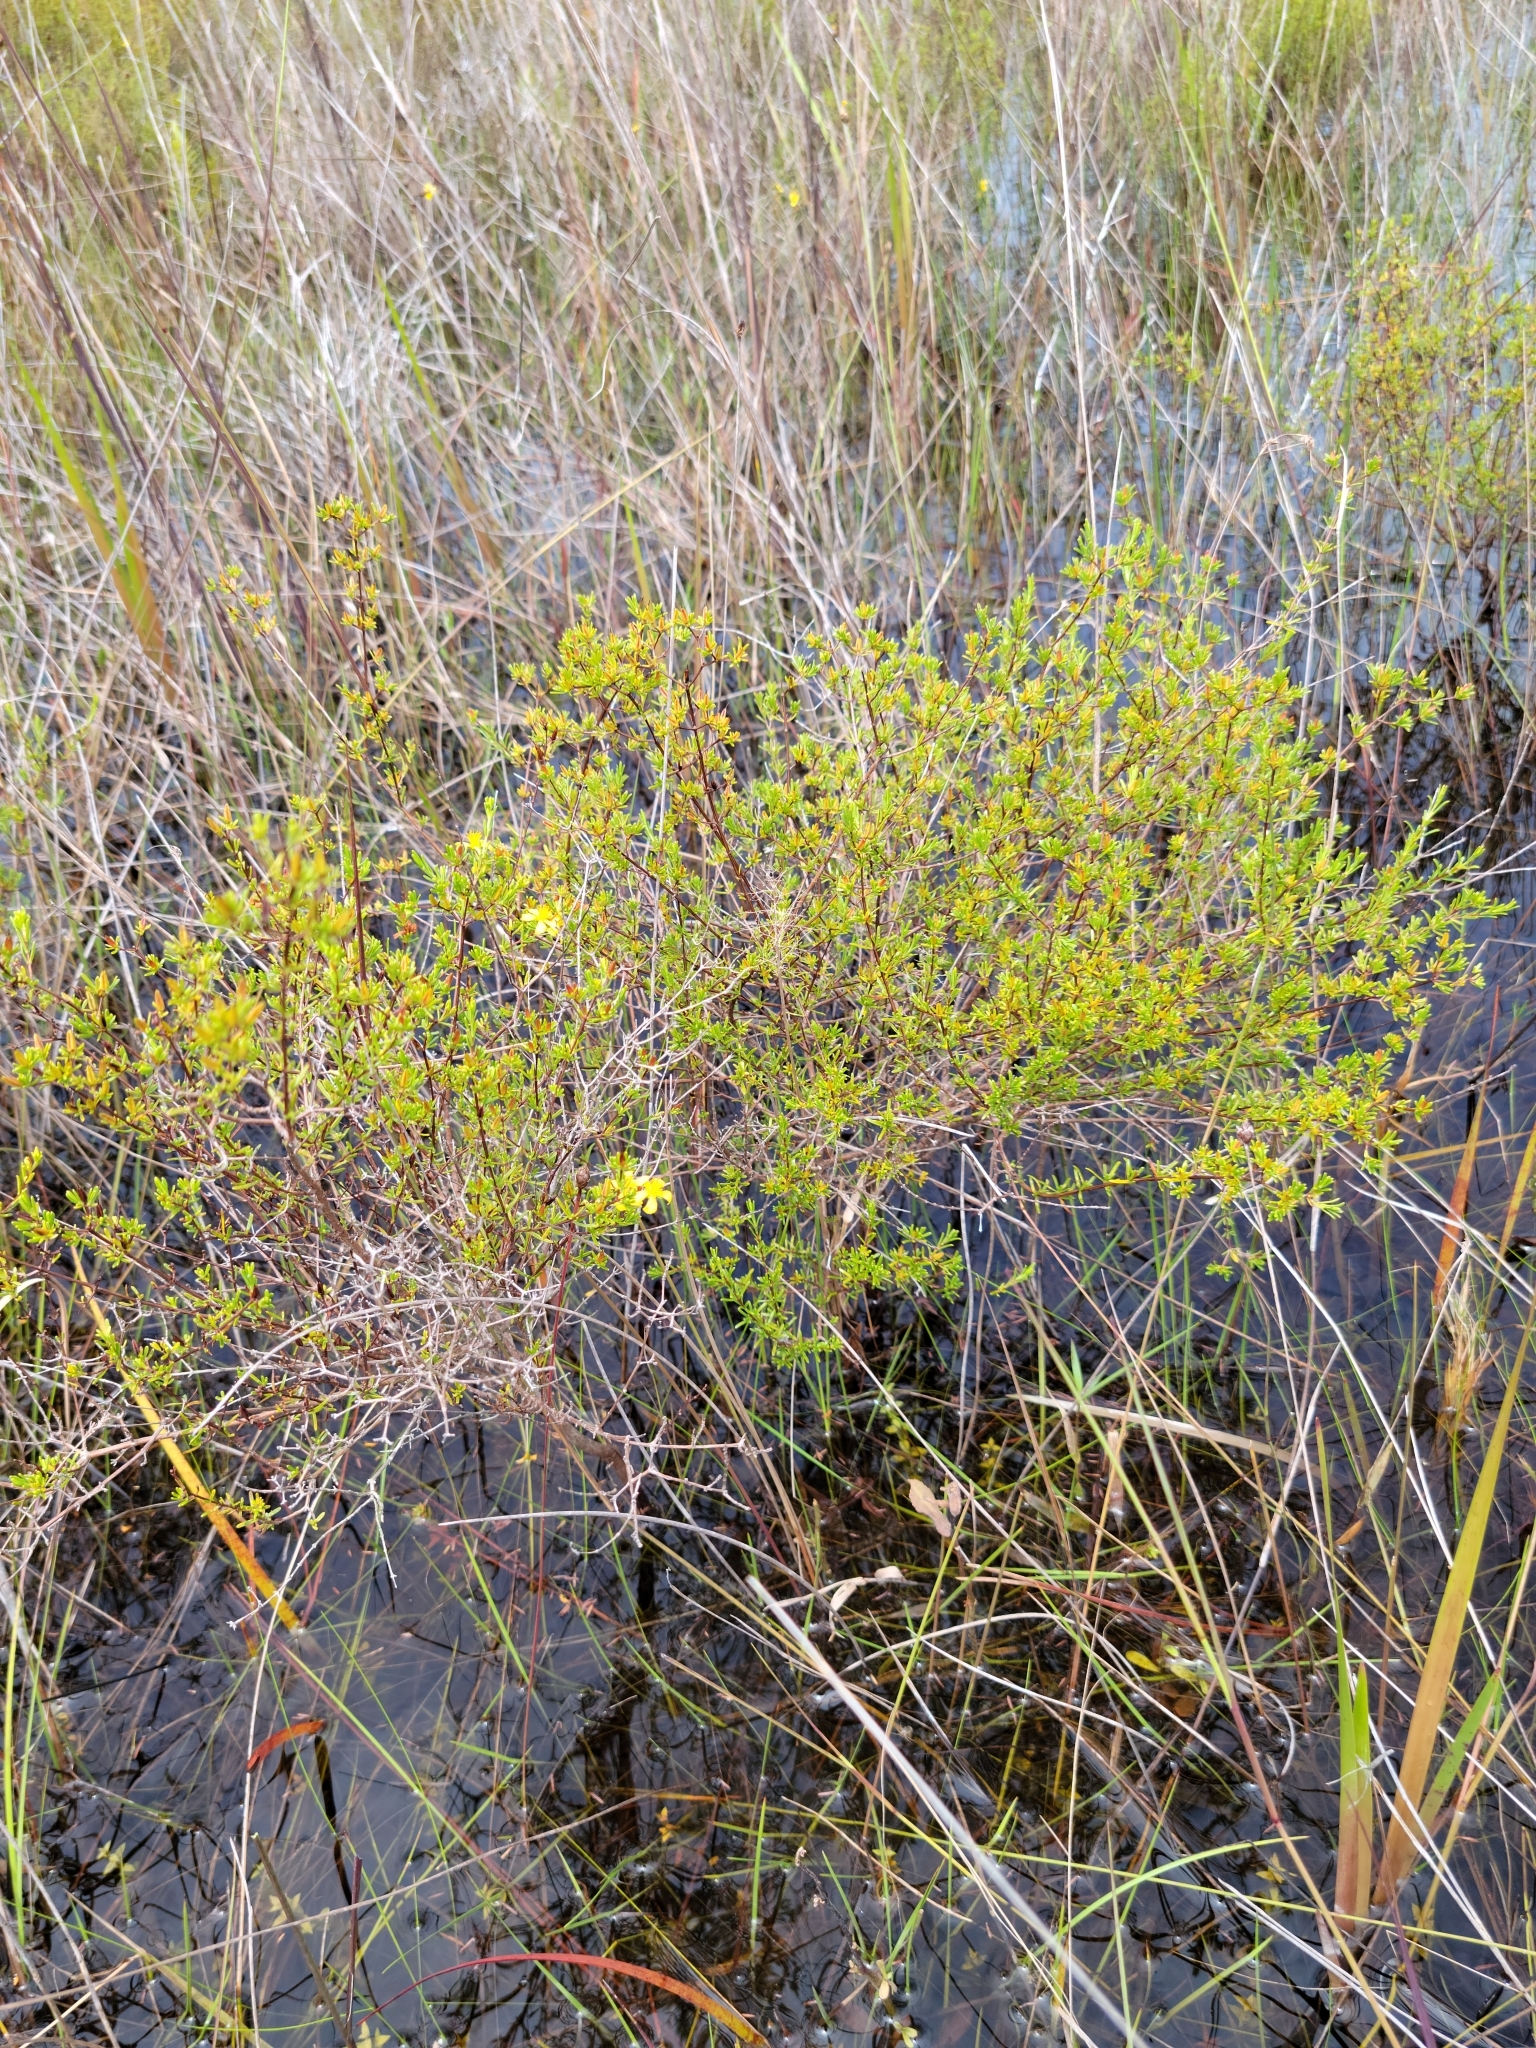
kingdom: Plantae
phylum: Tracheophyta
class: Magnoliopsida
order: Malpighiales
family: Hypericaceae
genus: Hypericum
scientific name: Hypericum limosum
